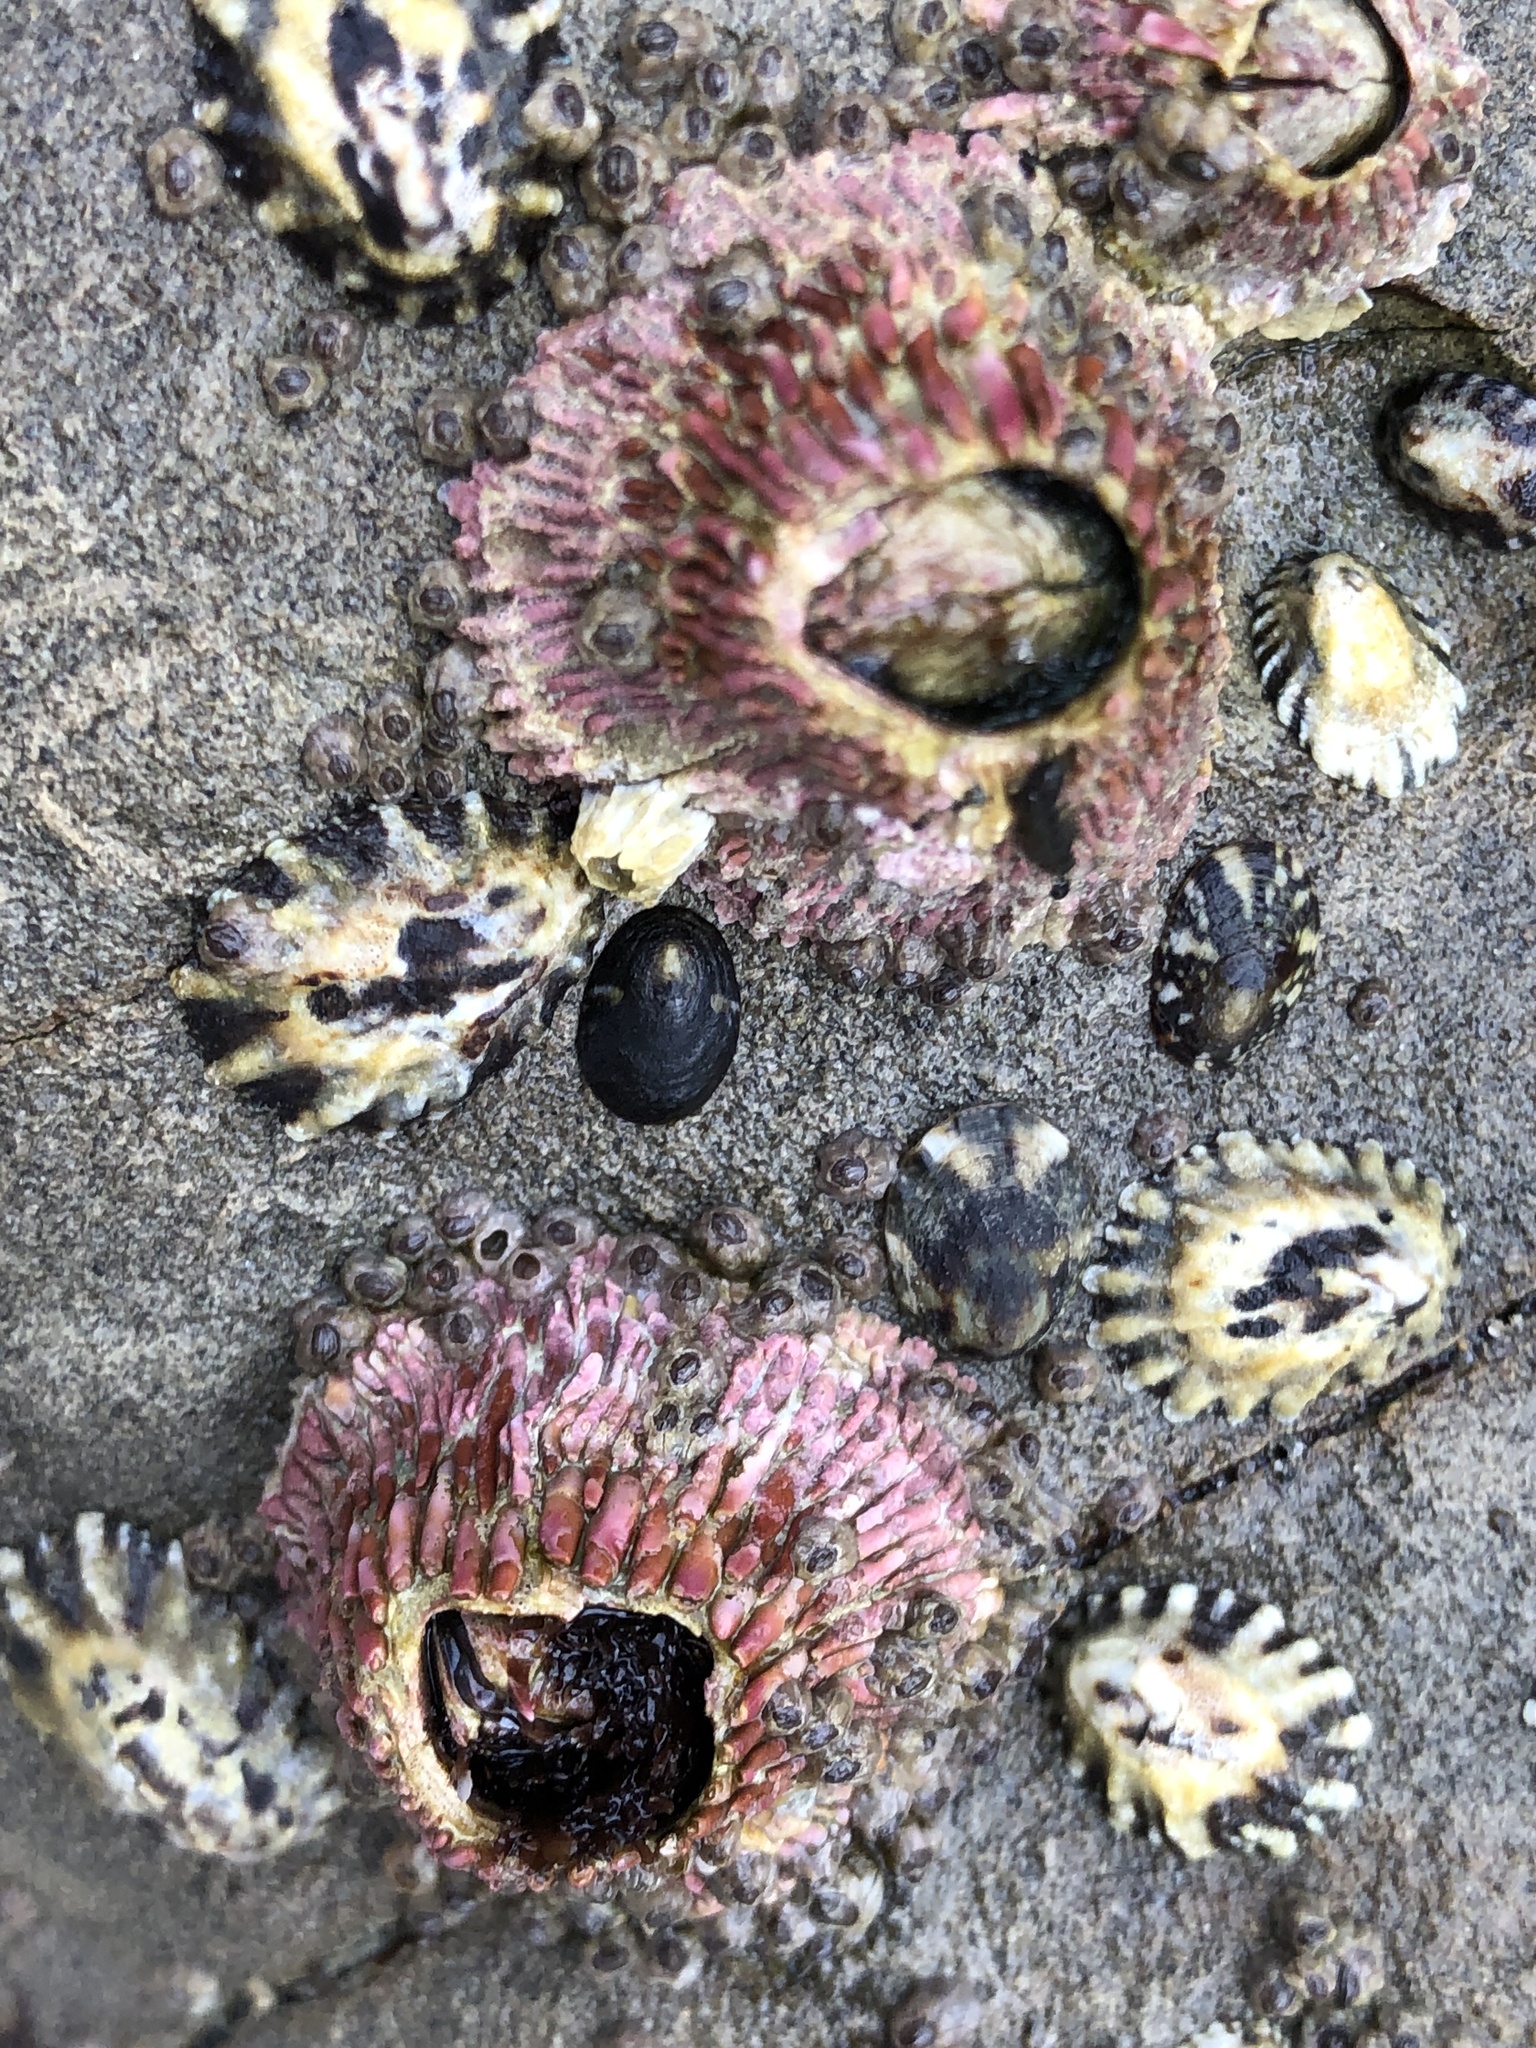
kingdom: Animalia
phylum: Arthropoda
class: Maxillopoda
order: Sessilia
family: Tetraclitidae
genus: Tetraclita
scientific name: Tetraclita rubescens
